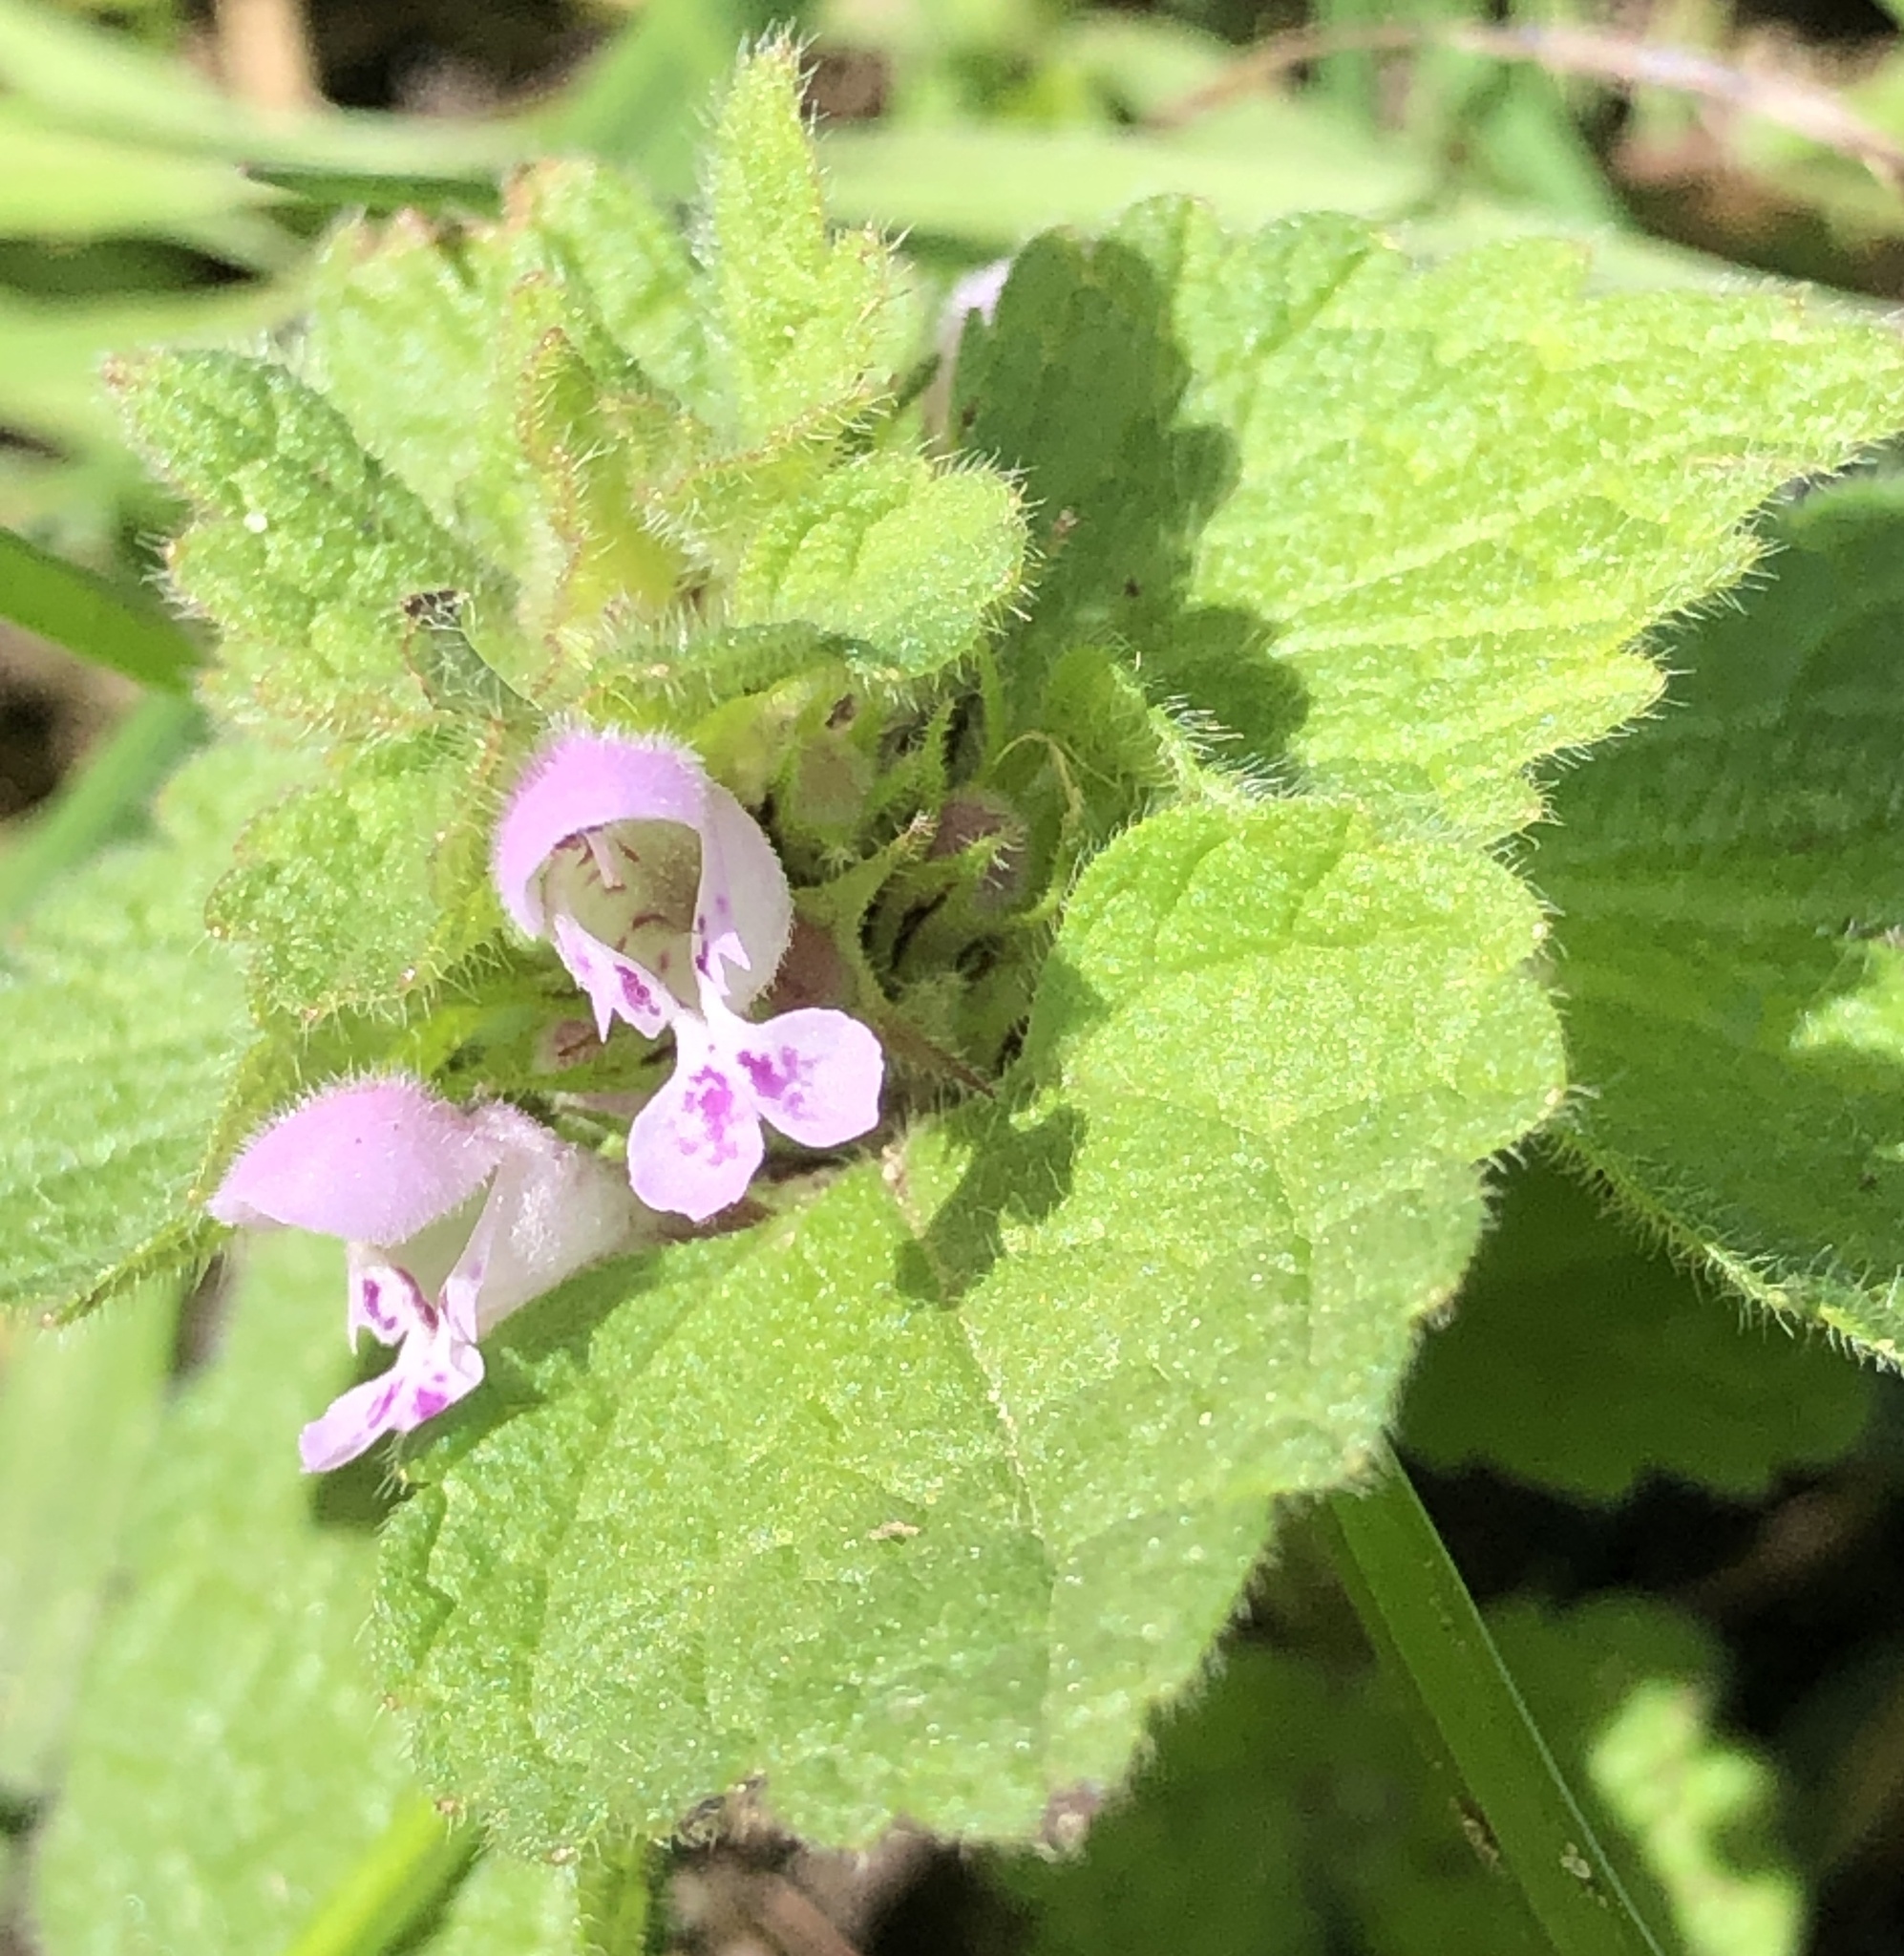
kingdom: Plantae
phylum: Tracheophyta
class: Magnoliopsida
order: Lamiales
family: Lamiaceae
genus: Lamium
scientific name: Lamium purpureum
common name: Red dead-nettle
